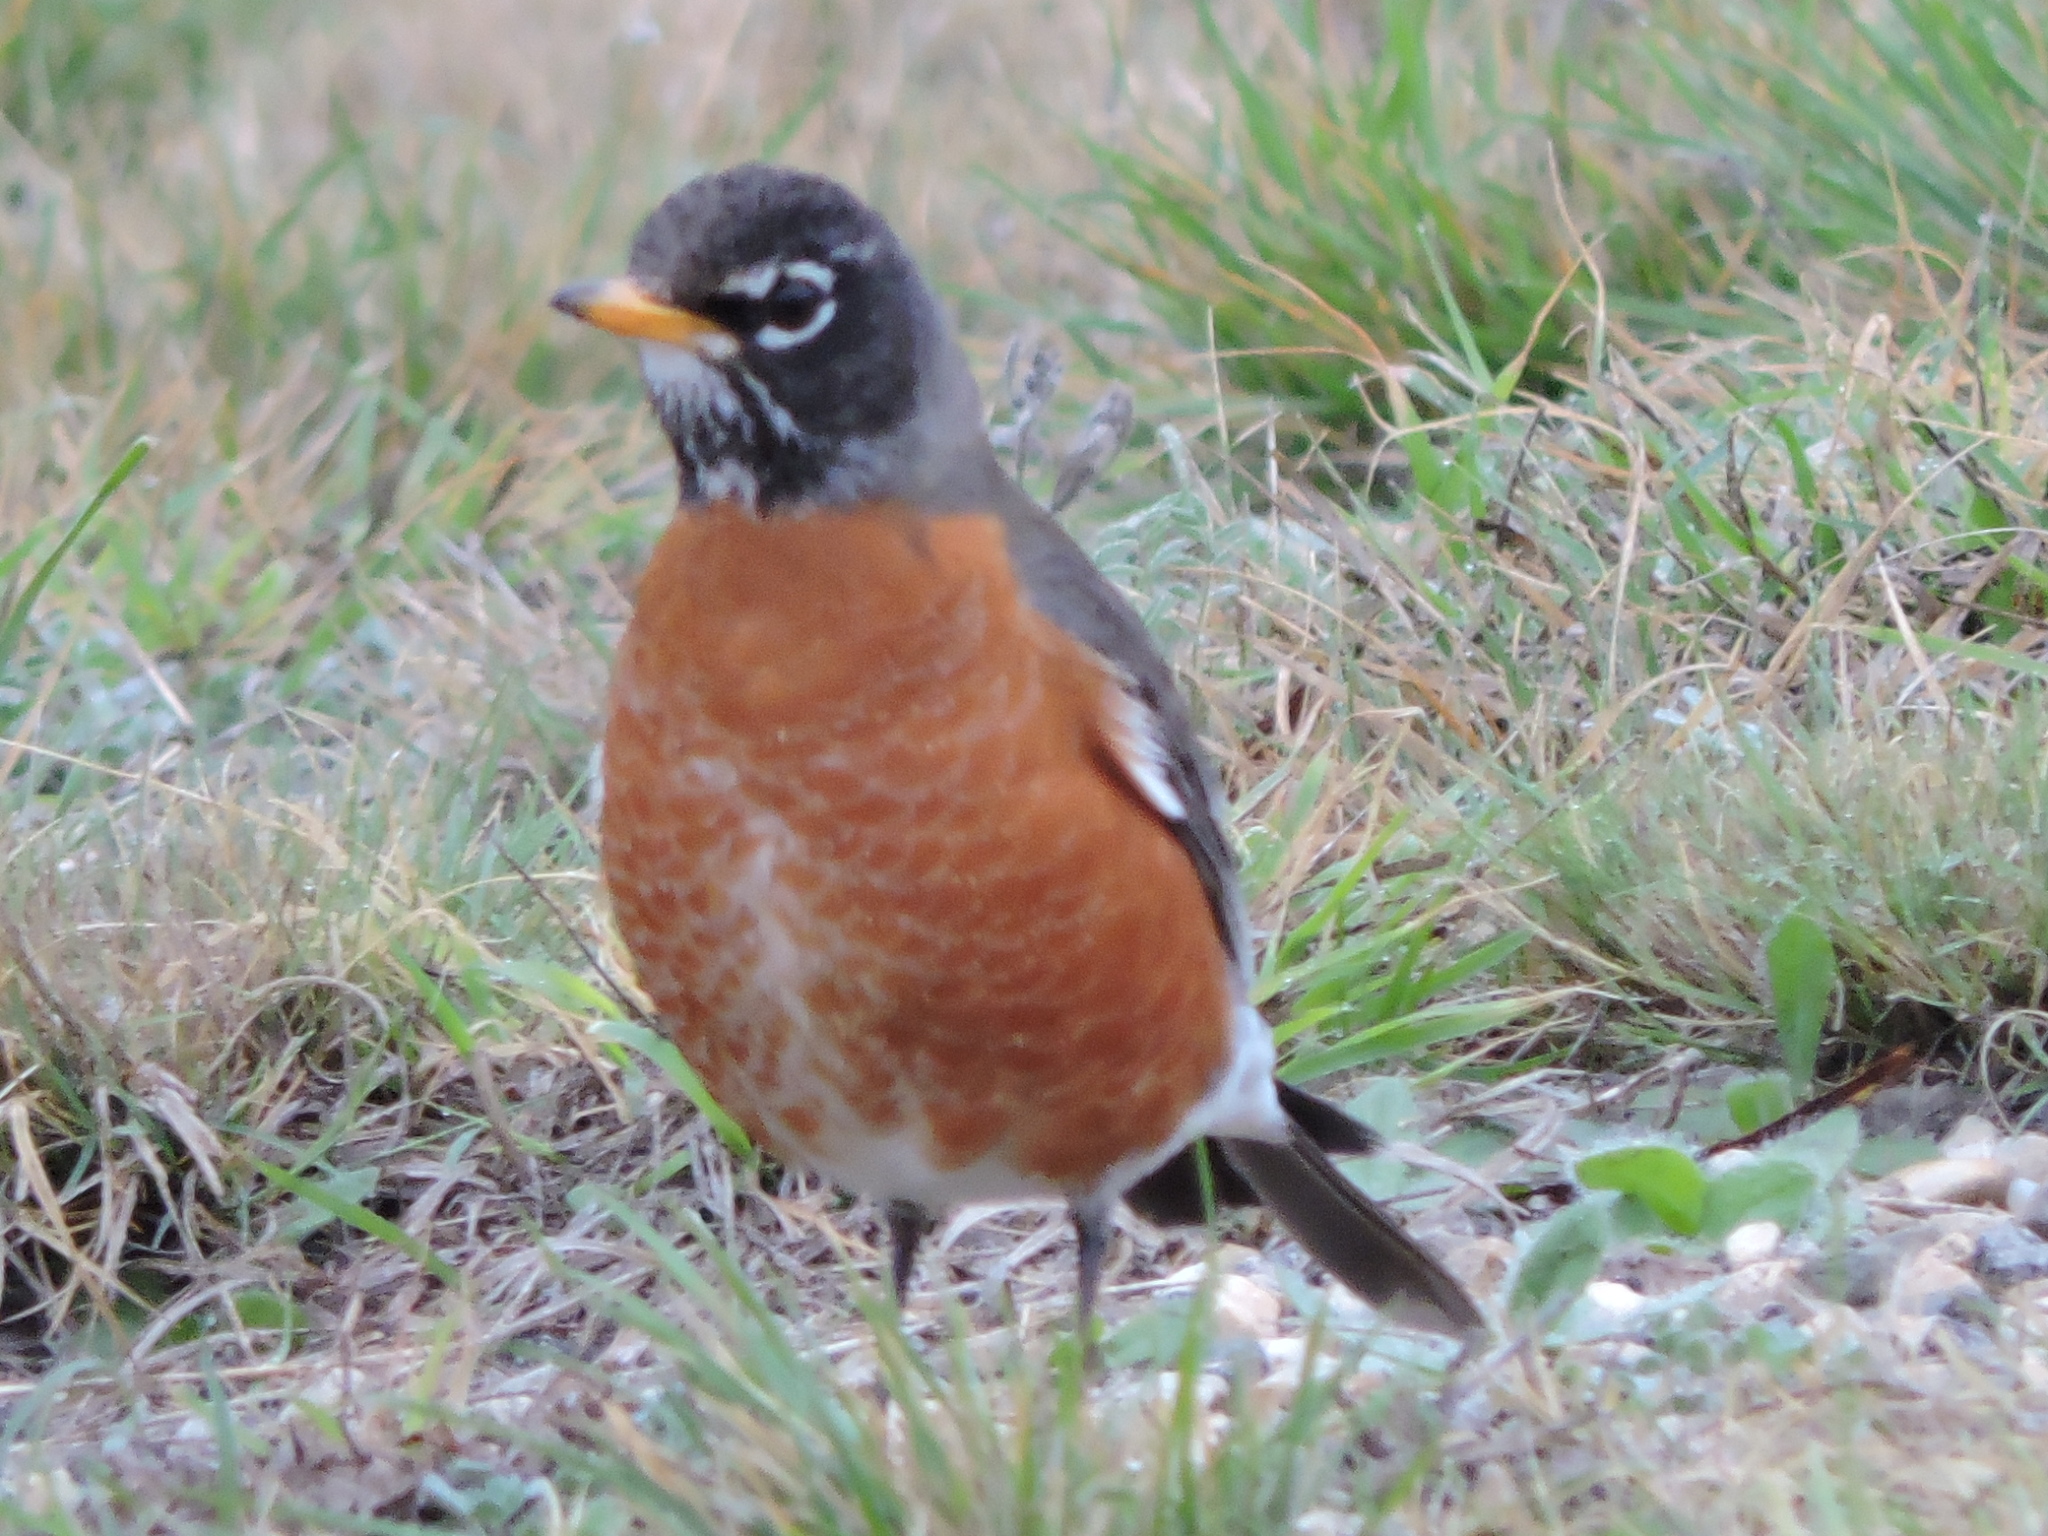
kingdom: Animalia
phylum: Chordata
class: Aves
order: Passeriformes
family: Turdidae
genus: Turdus
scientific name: Turdus migratorius
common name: American robin
